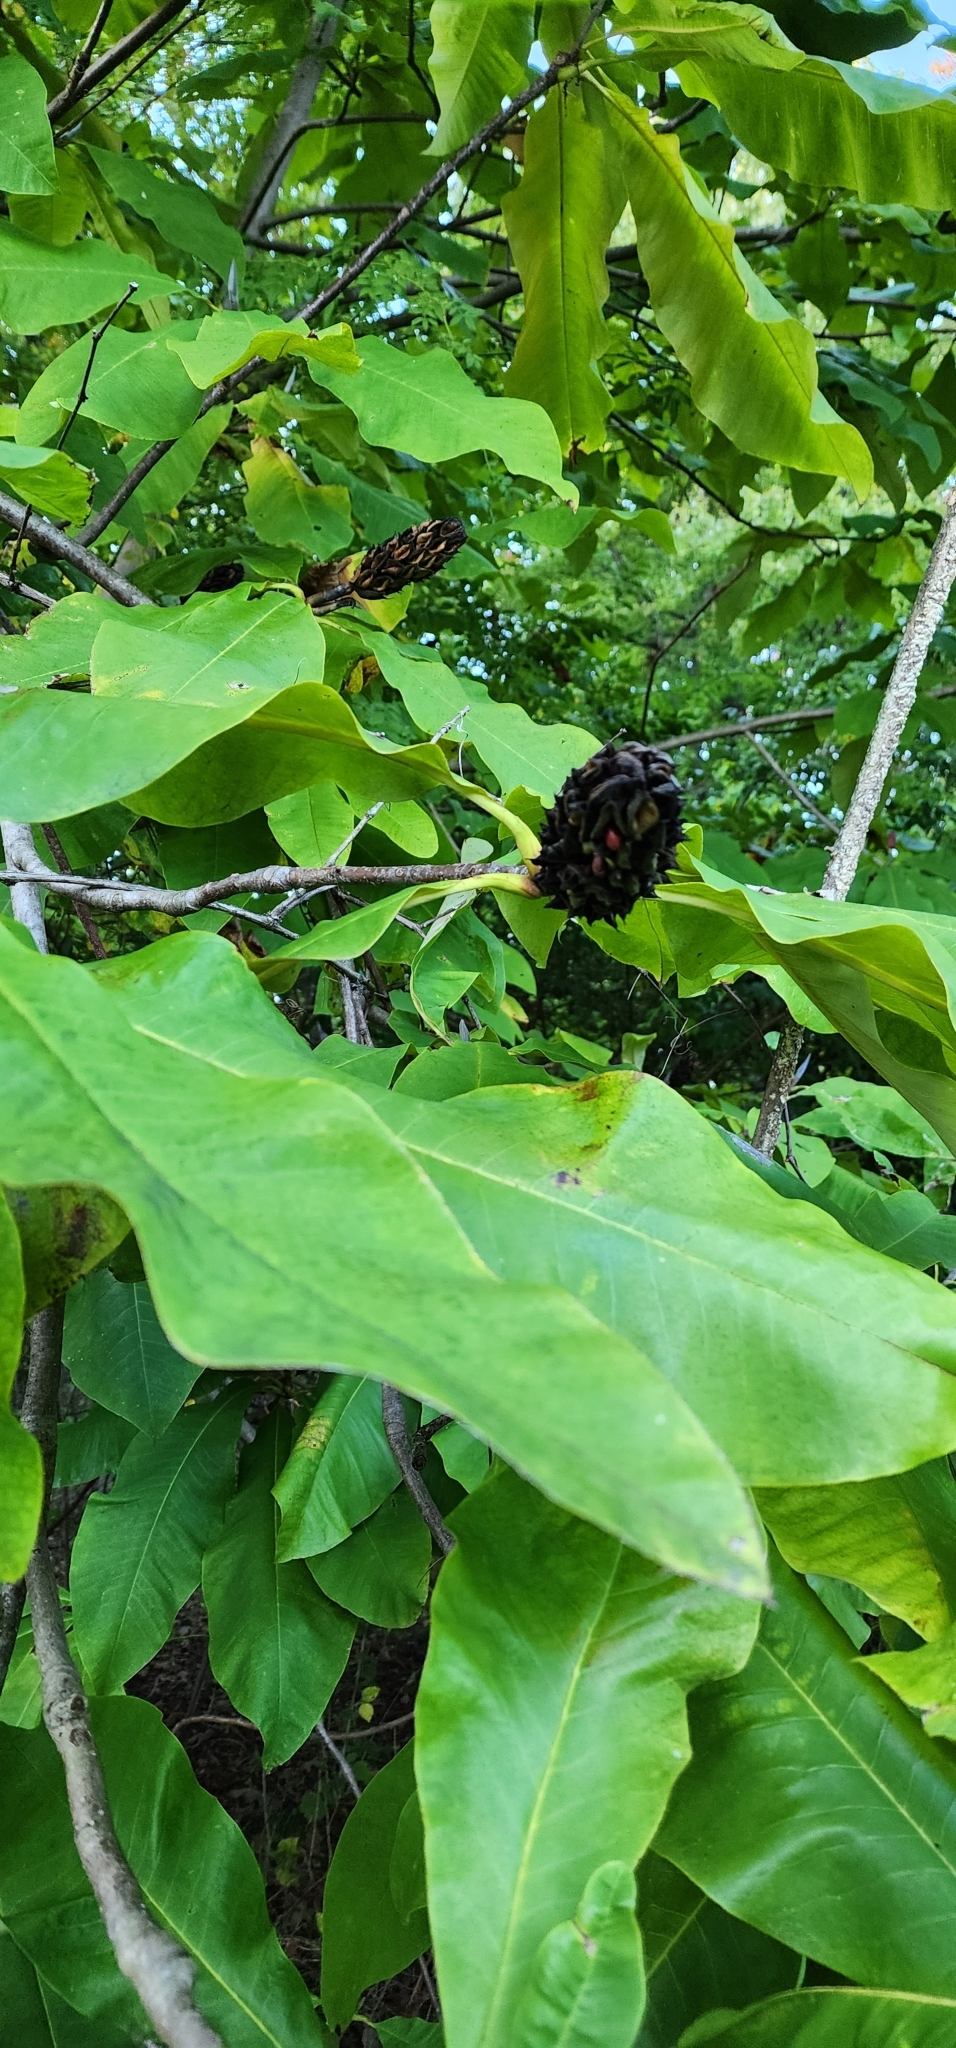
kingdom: Plantae
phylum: Tracheophyta
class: Magnoliopsida
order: Magnoliales
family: Magnoliaceae
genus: Magnolia
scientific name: Magnolia tripetala
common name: Umbrella magnolia
